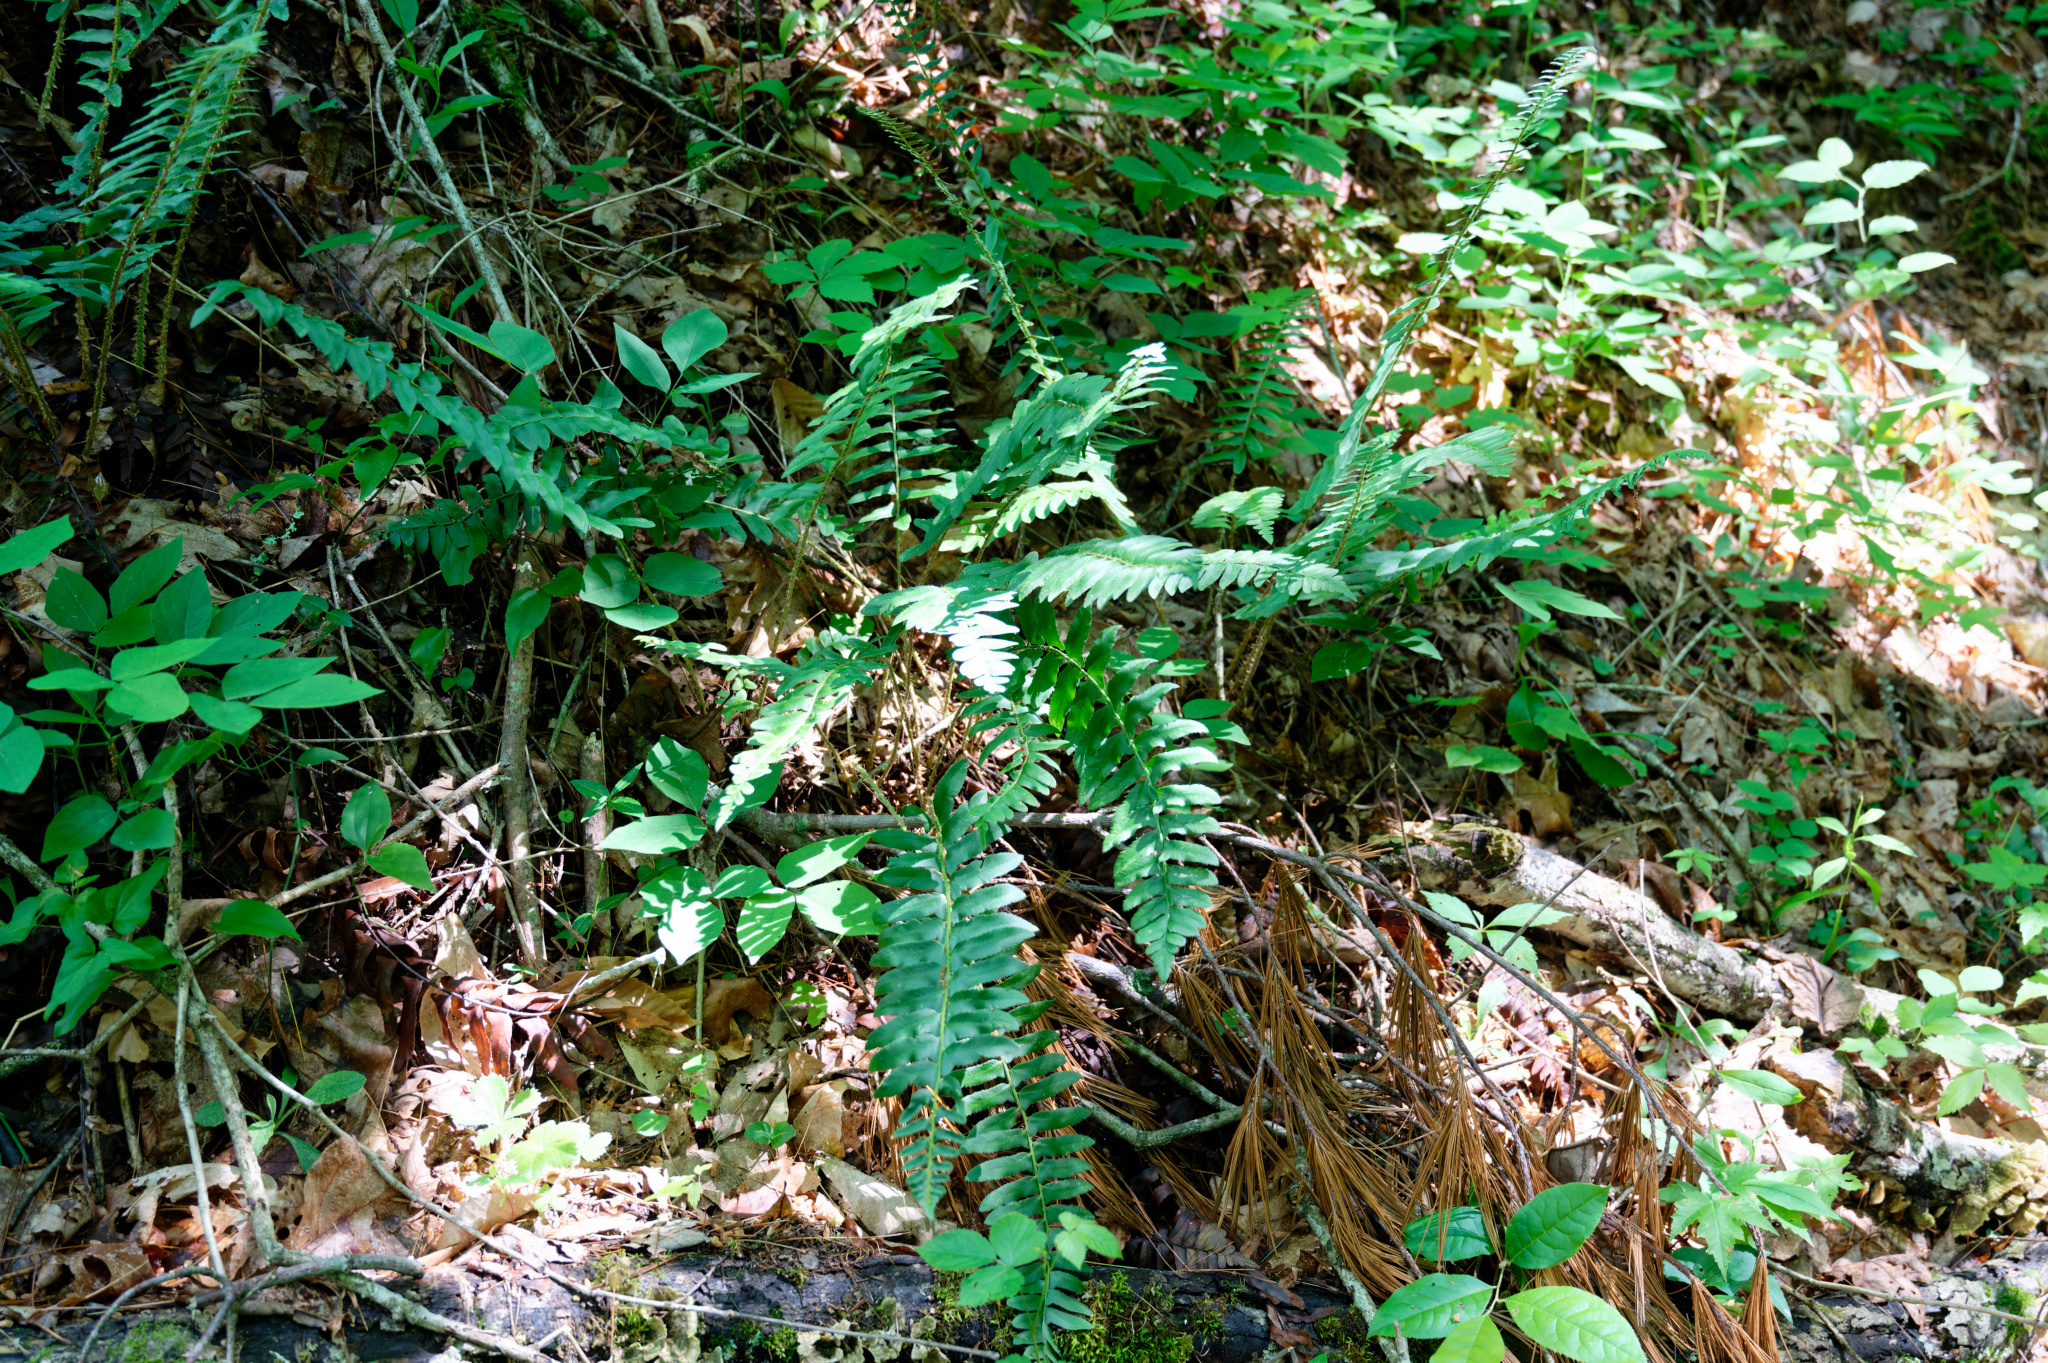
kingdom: Plantae
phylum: Tracheophyta
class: Polypodiopsida
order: Polypodiales
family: Dryopteridaceae
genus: Polystichum
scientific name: Polystichum acrostichoides
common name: Christmas fern
